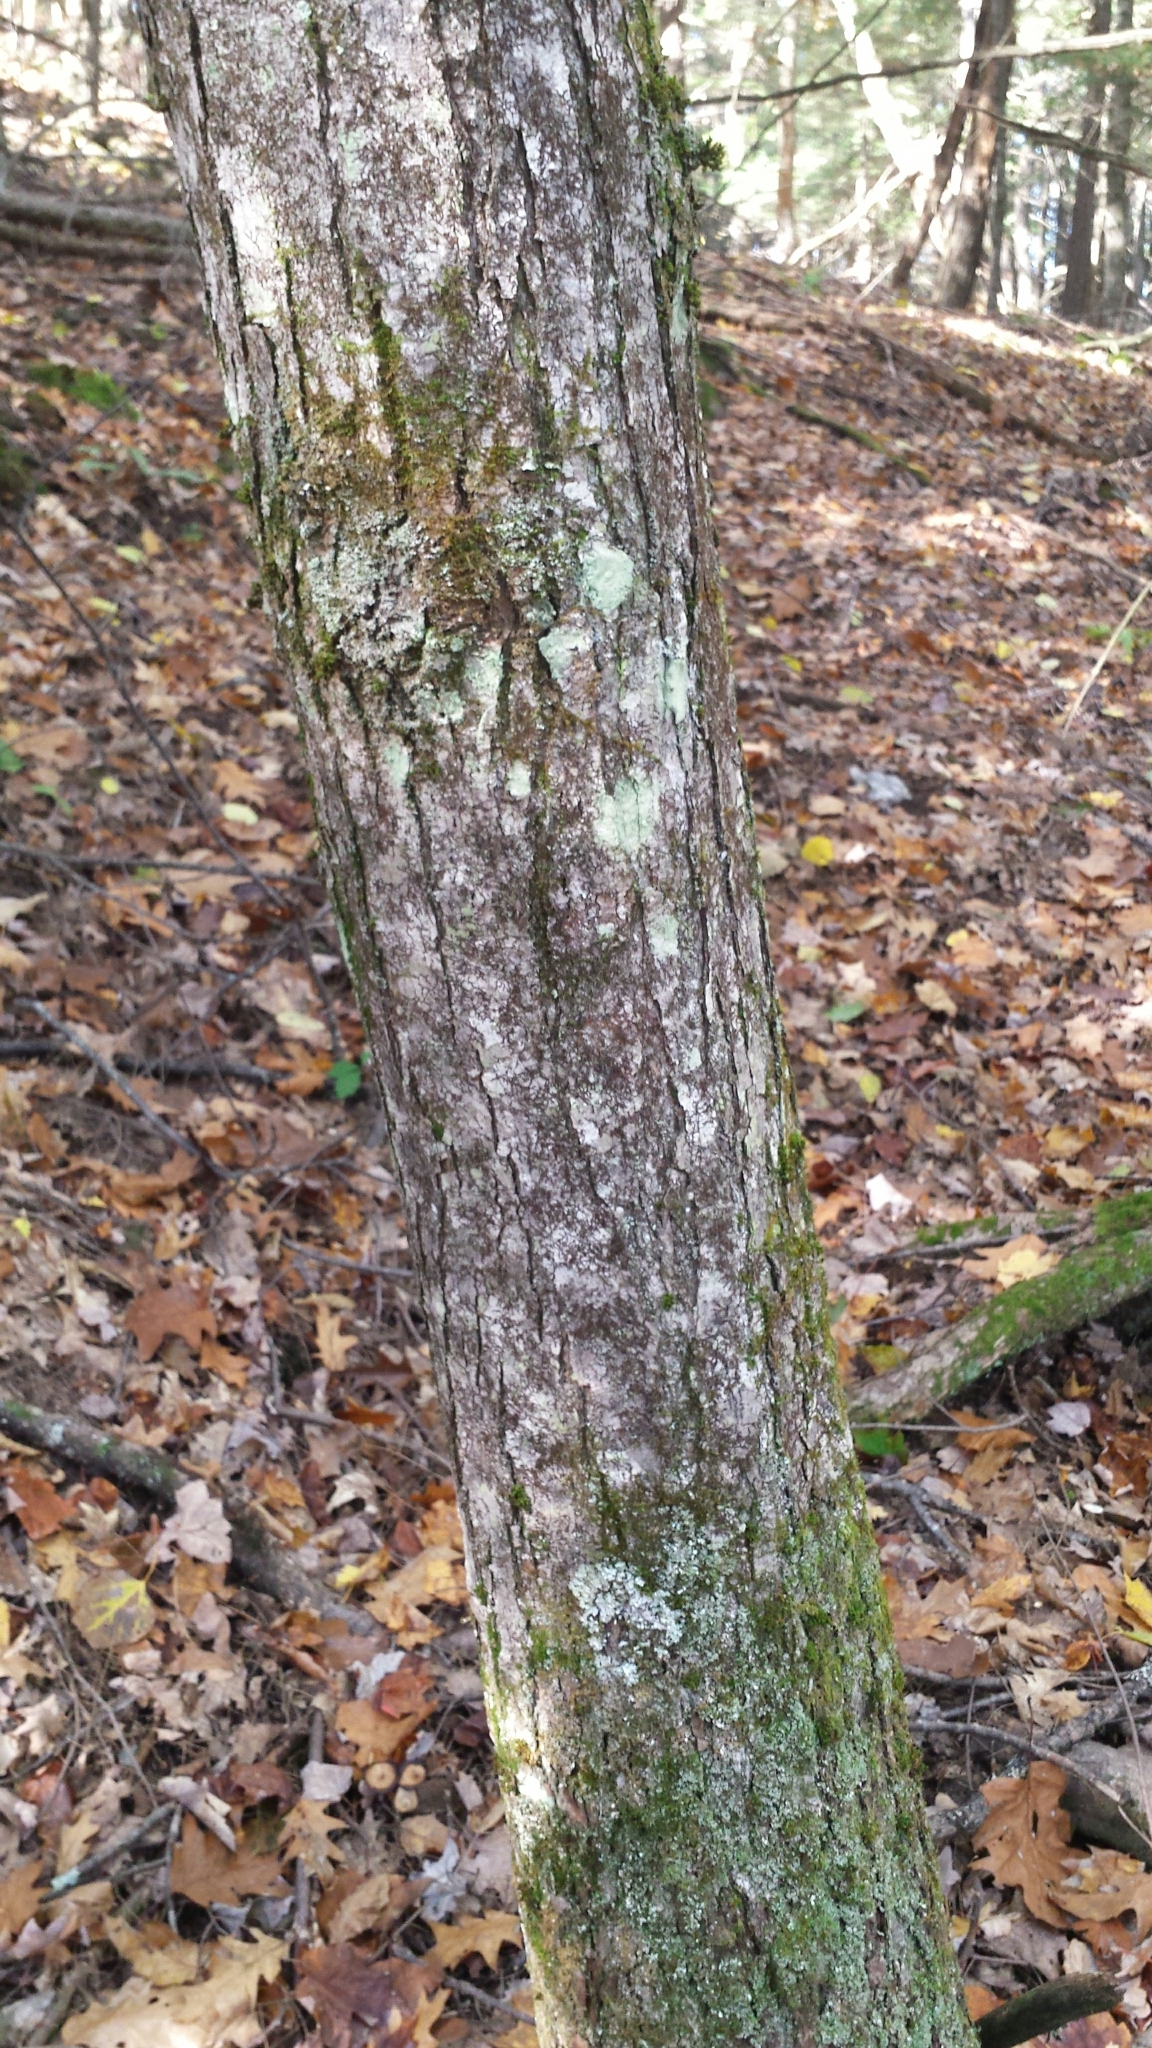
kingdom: Plantae
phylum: Tracheophyta
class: Magnoliopsida
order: Sapindales
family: Sapindaceae
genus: Acer
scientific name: Acer rubrum
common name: Red maple
